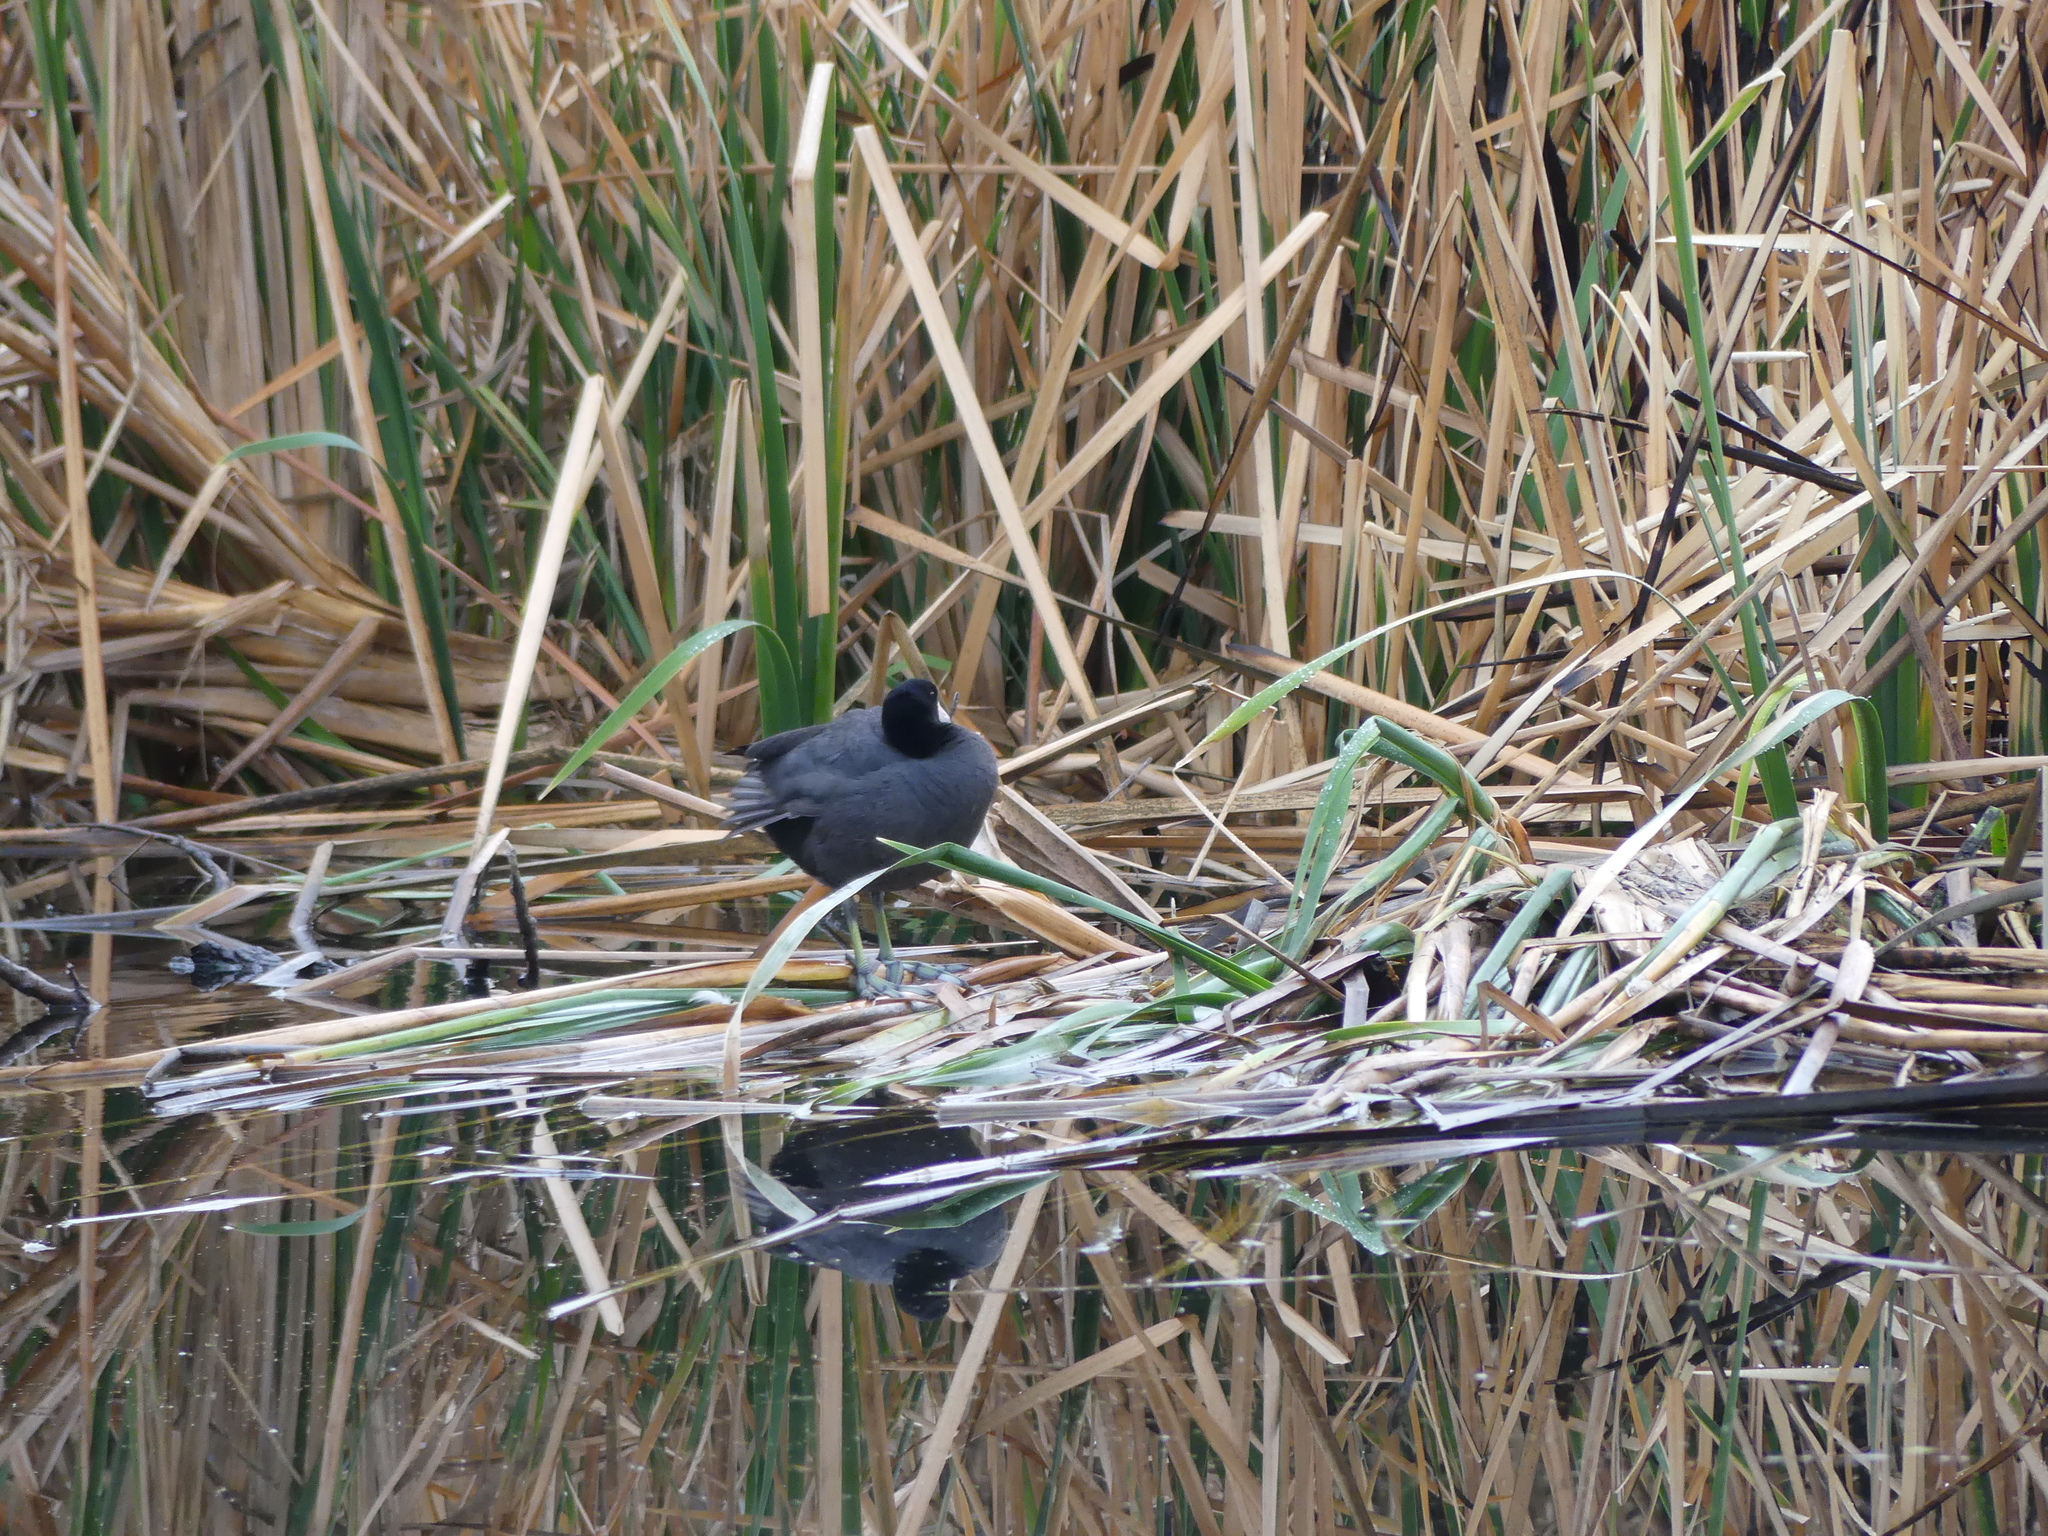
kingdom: Animalia
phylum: Chordata
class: Aves
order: Gruiformes
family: Rallidae
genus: Fulica
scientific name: Fulica americana
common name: American coot
